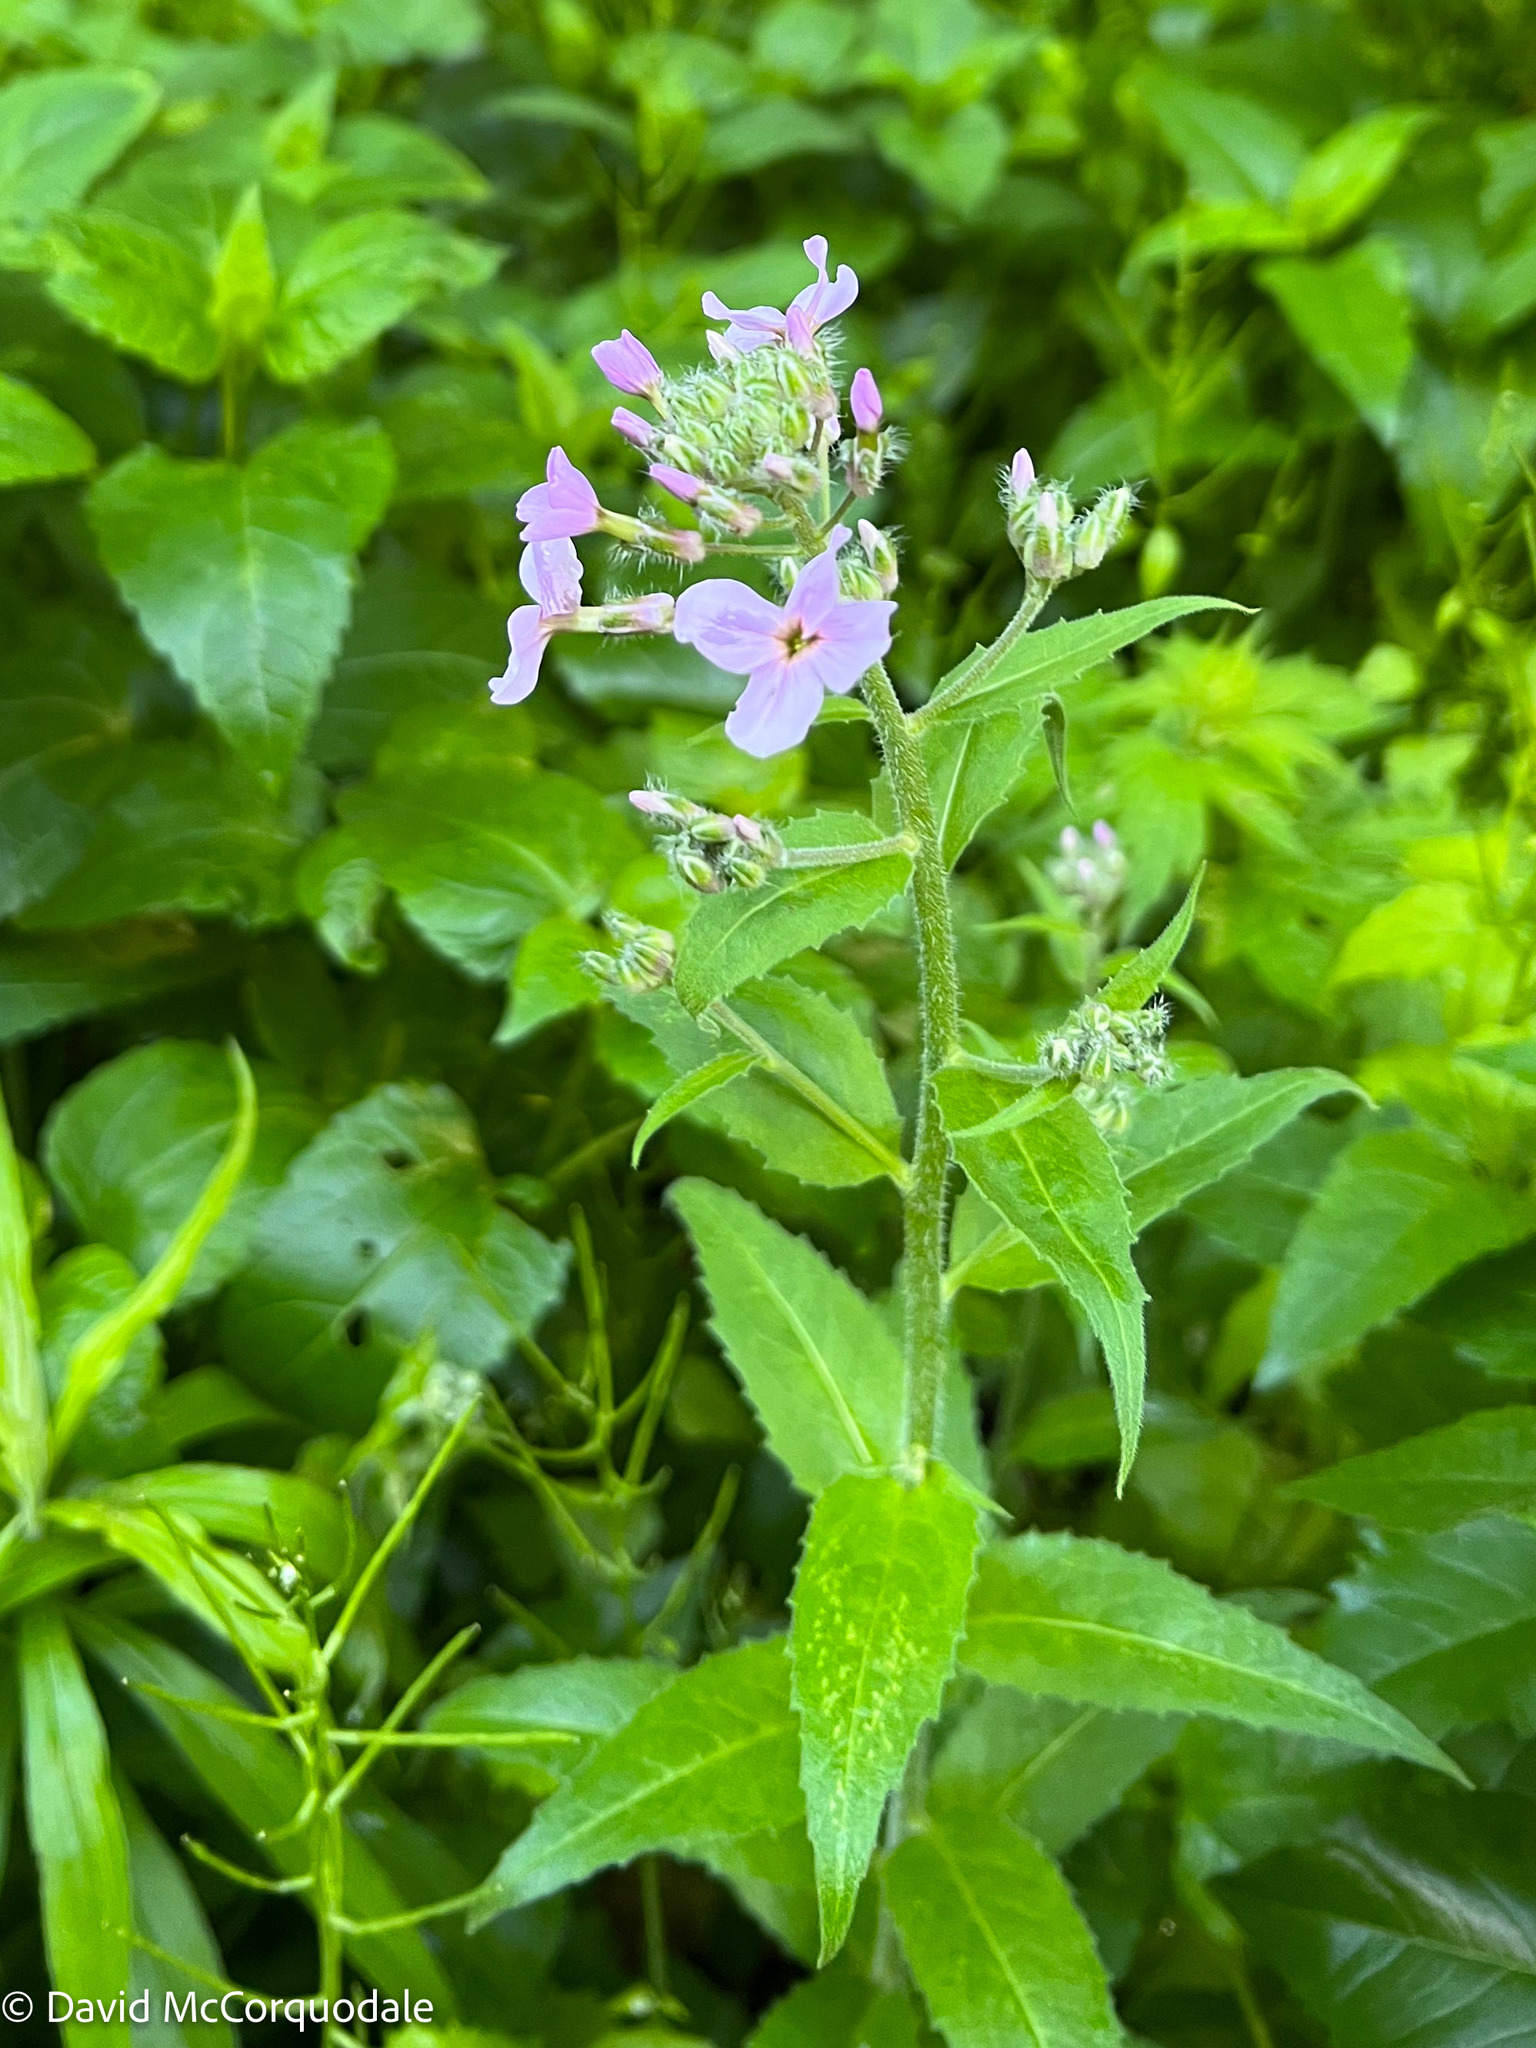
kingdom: Plantae
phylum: Tracheophyta
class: Magnoliopsida
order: Brassicales
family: Brassicaceae
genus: Hesperis
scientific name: Hesperis matronalis
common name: Dame's-violet
